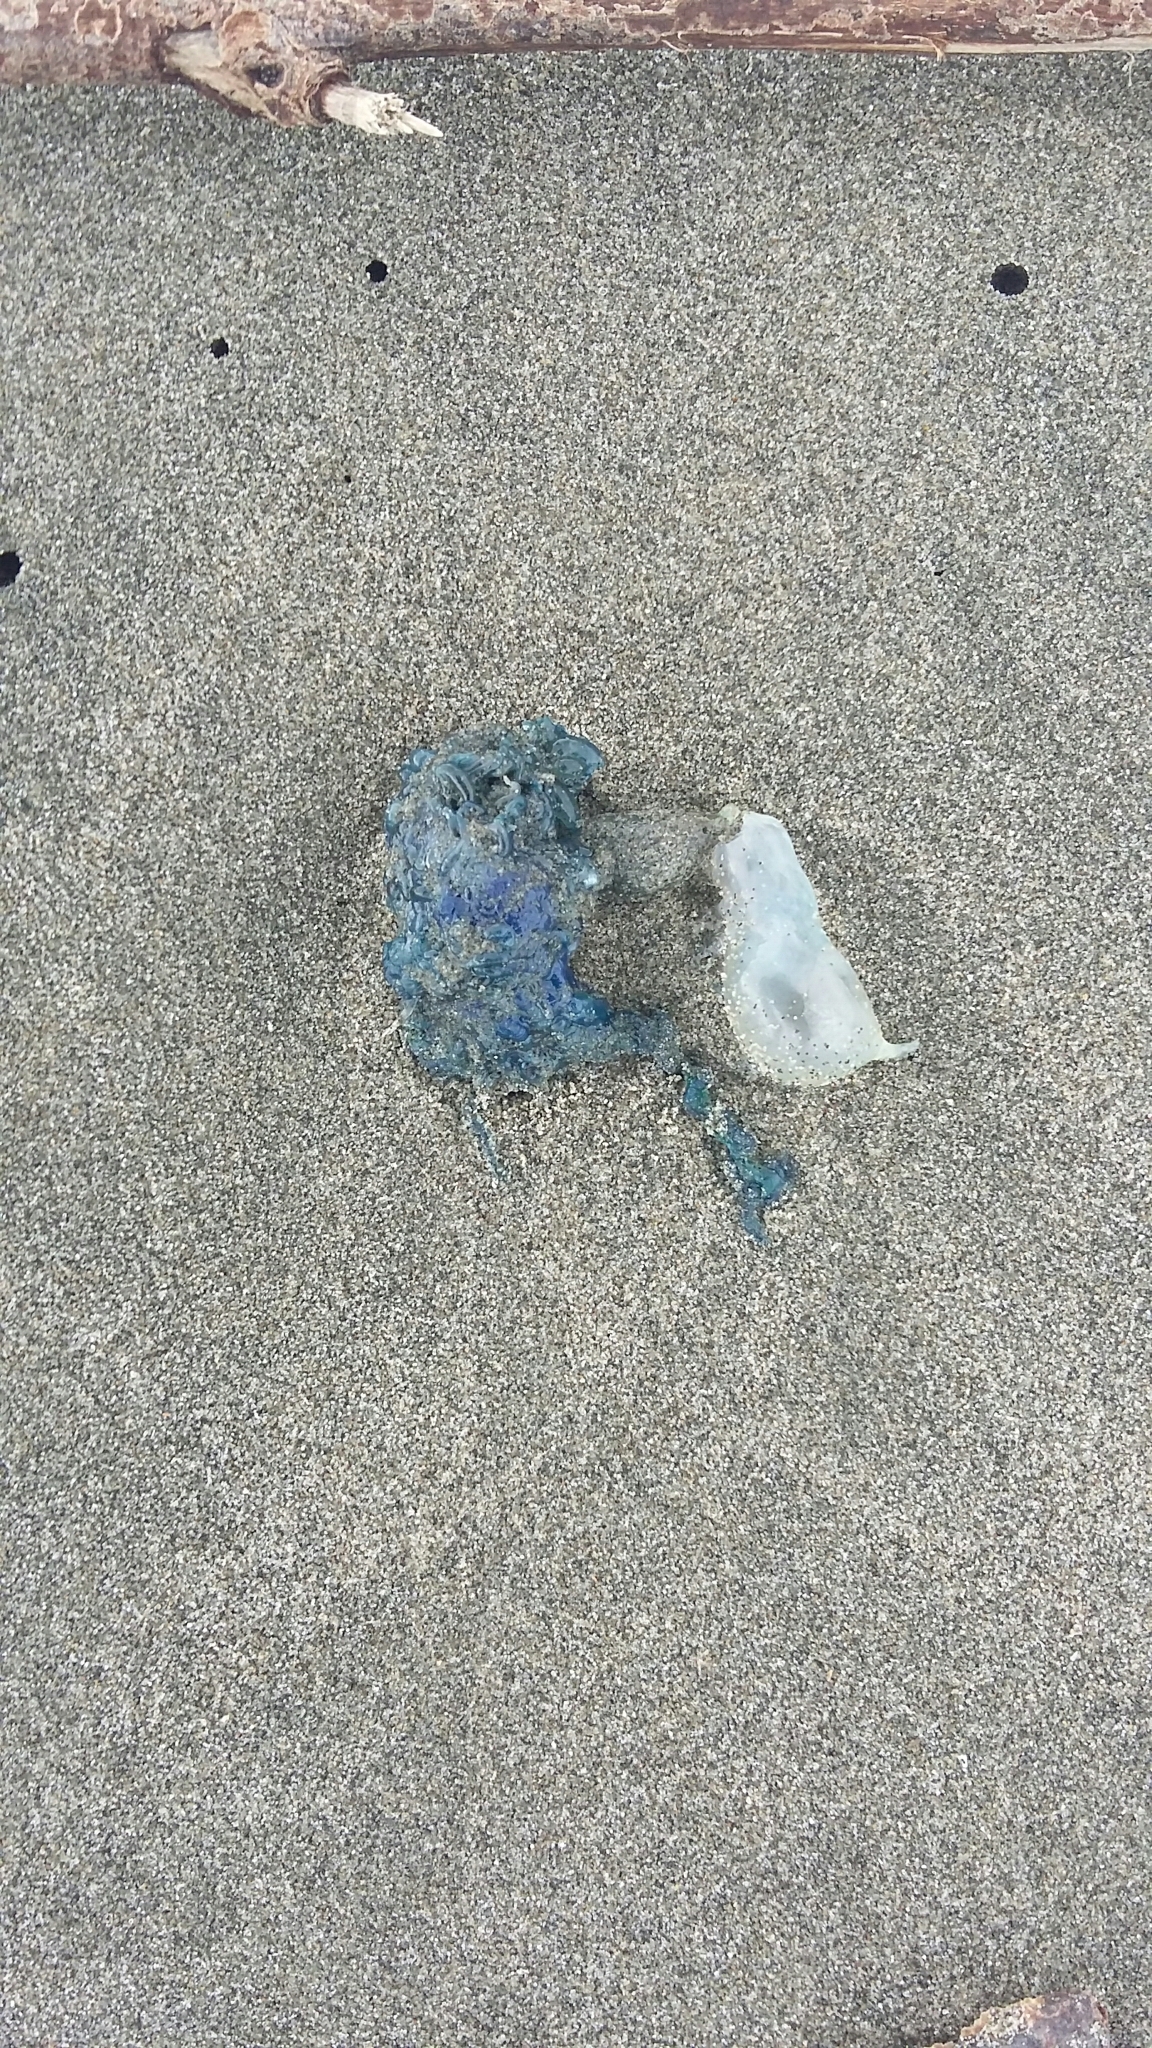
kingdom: Animalia
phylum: Cnidaria
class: Hydrozoa
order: Siphonophorae
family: Physaliidae
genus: Physalia
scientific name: Physalia physalis
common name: Portuguese man-of-war
